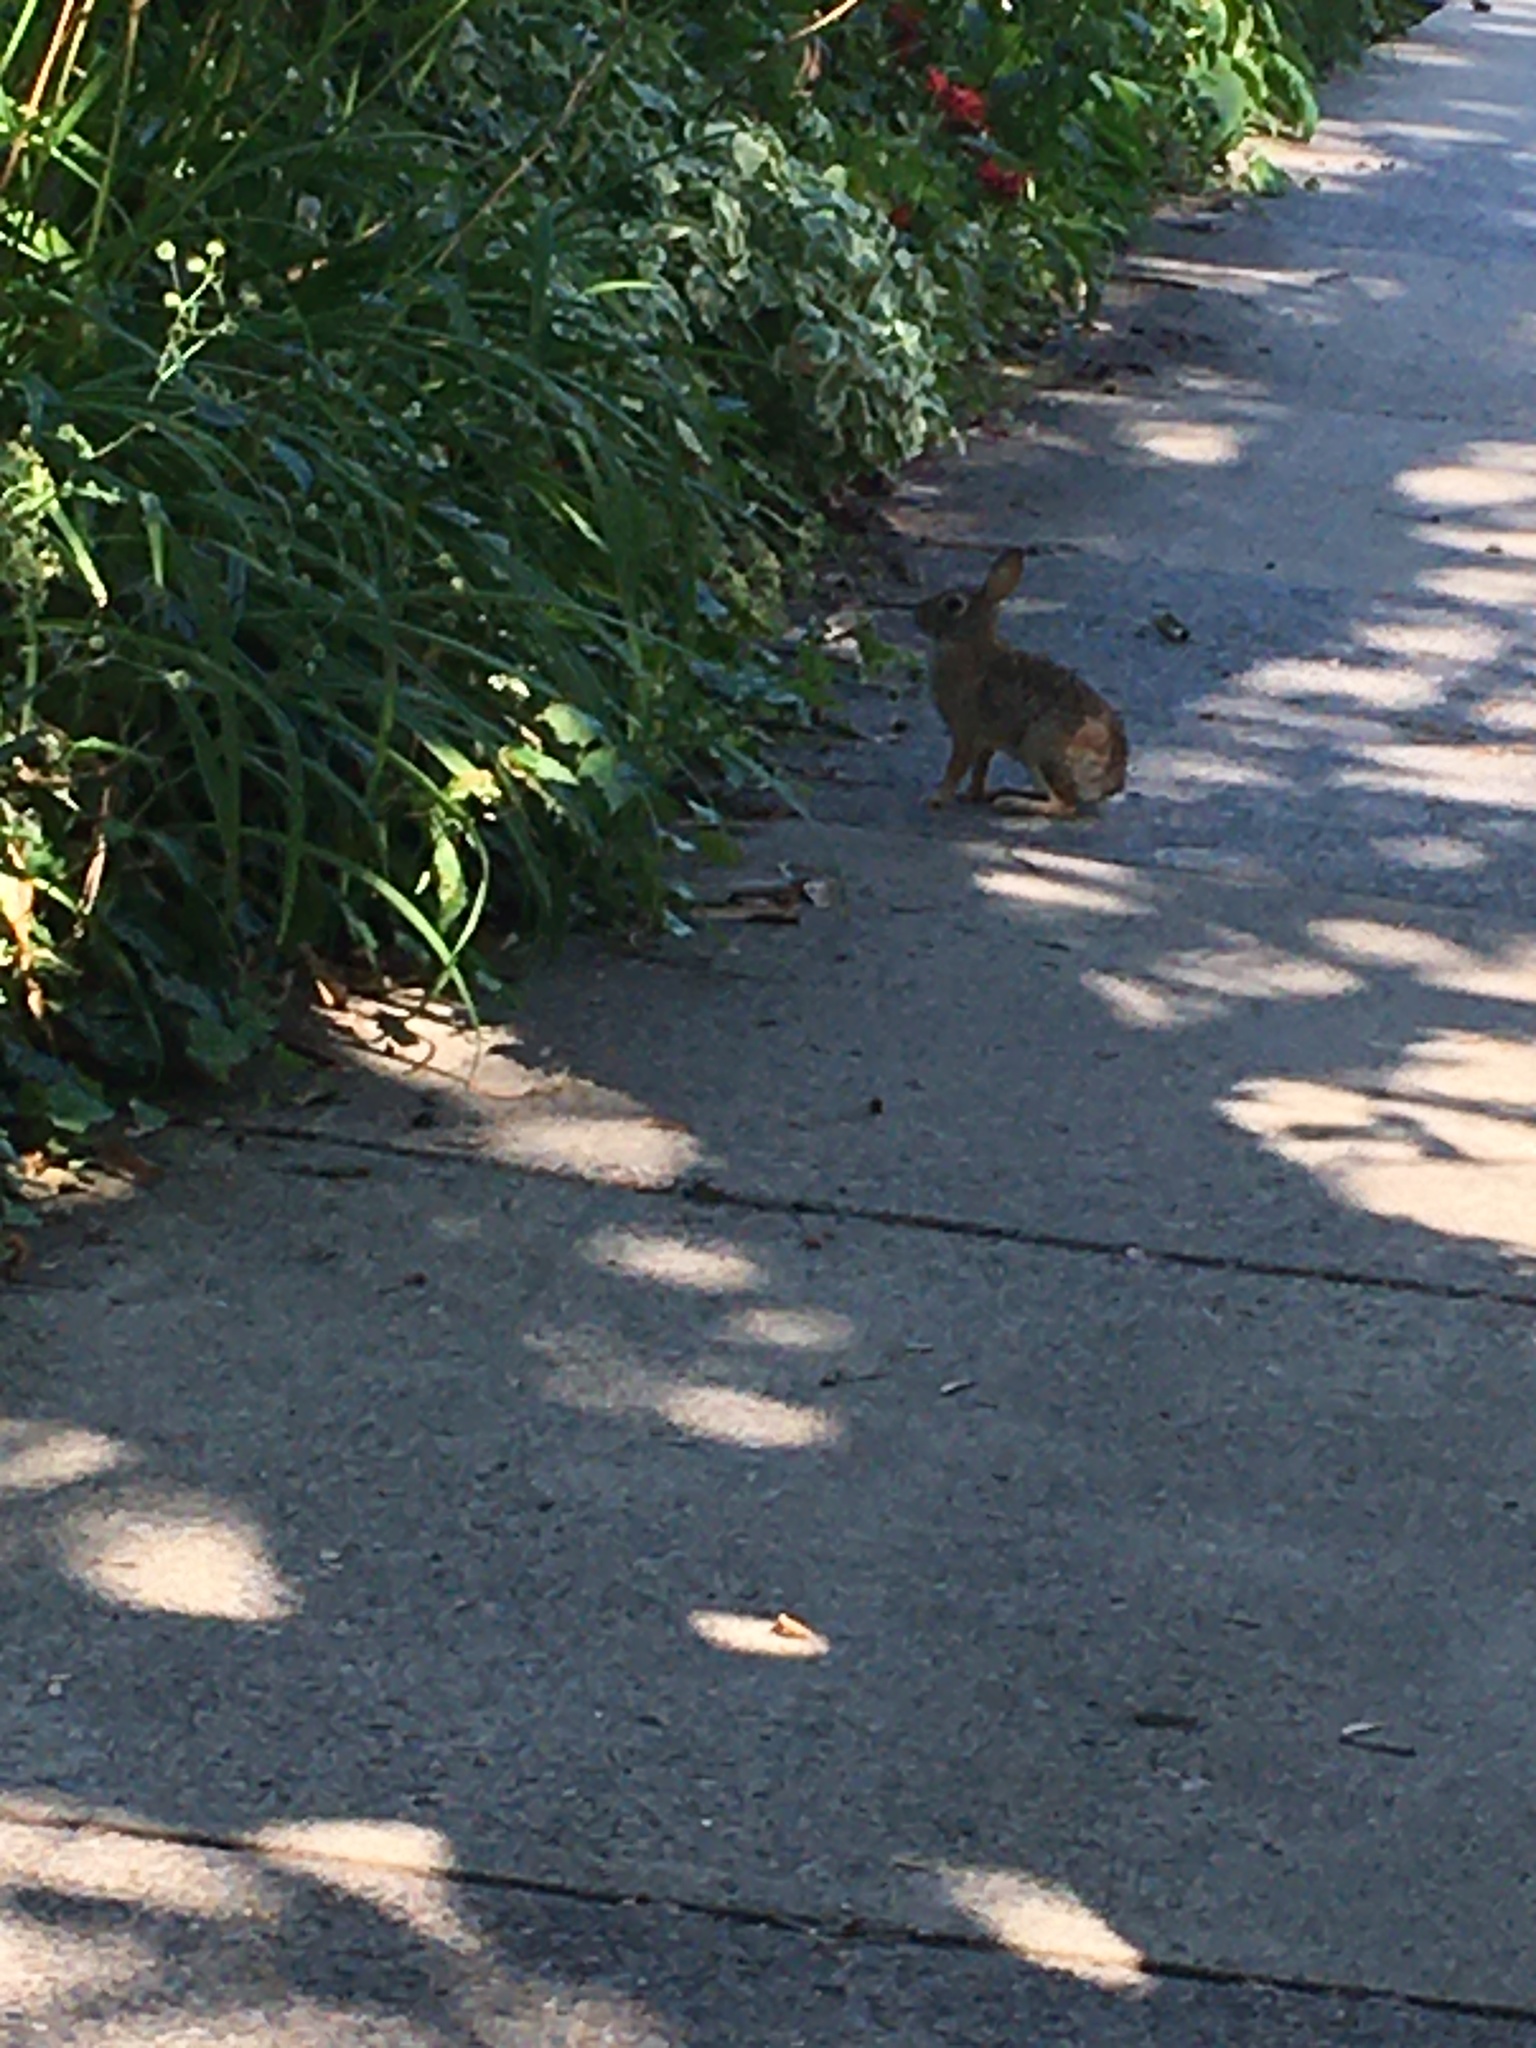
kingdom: Animalia
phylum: Chordata
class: Mammalia
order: Lagomorpha
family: Leporidae
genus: Sylvilagus
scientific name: Sylvilagus floridanus
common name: Eastern cottontail
